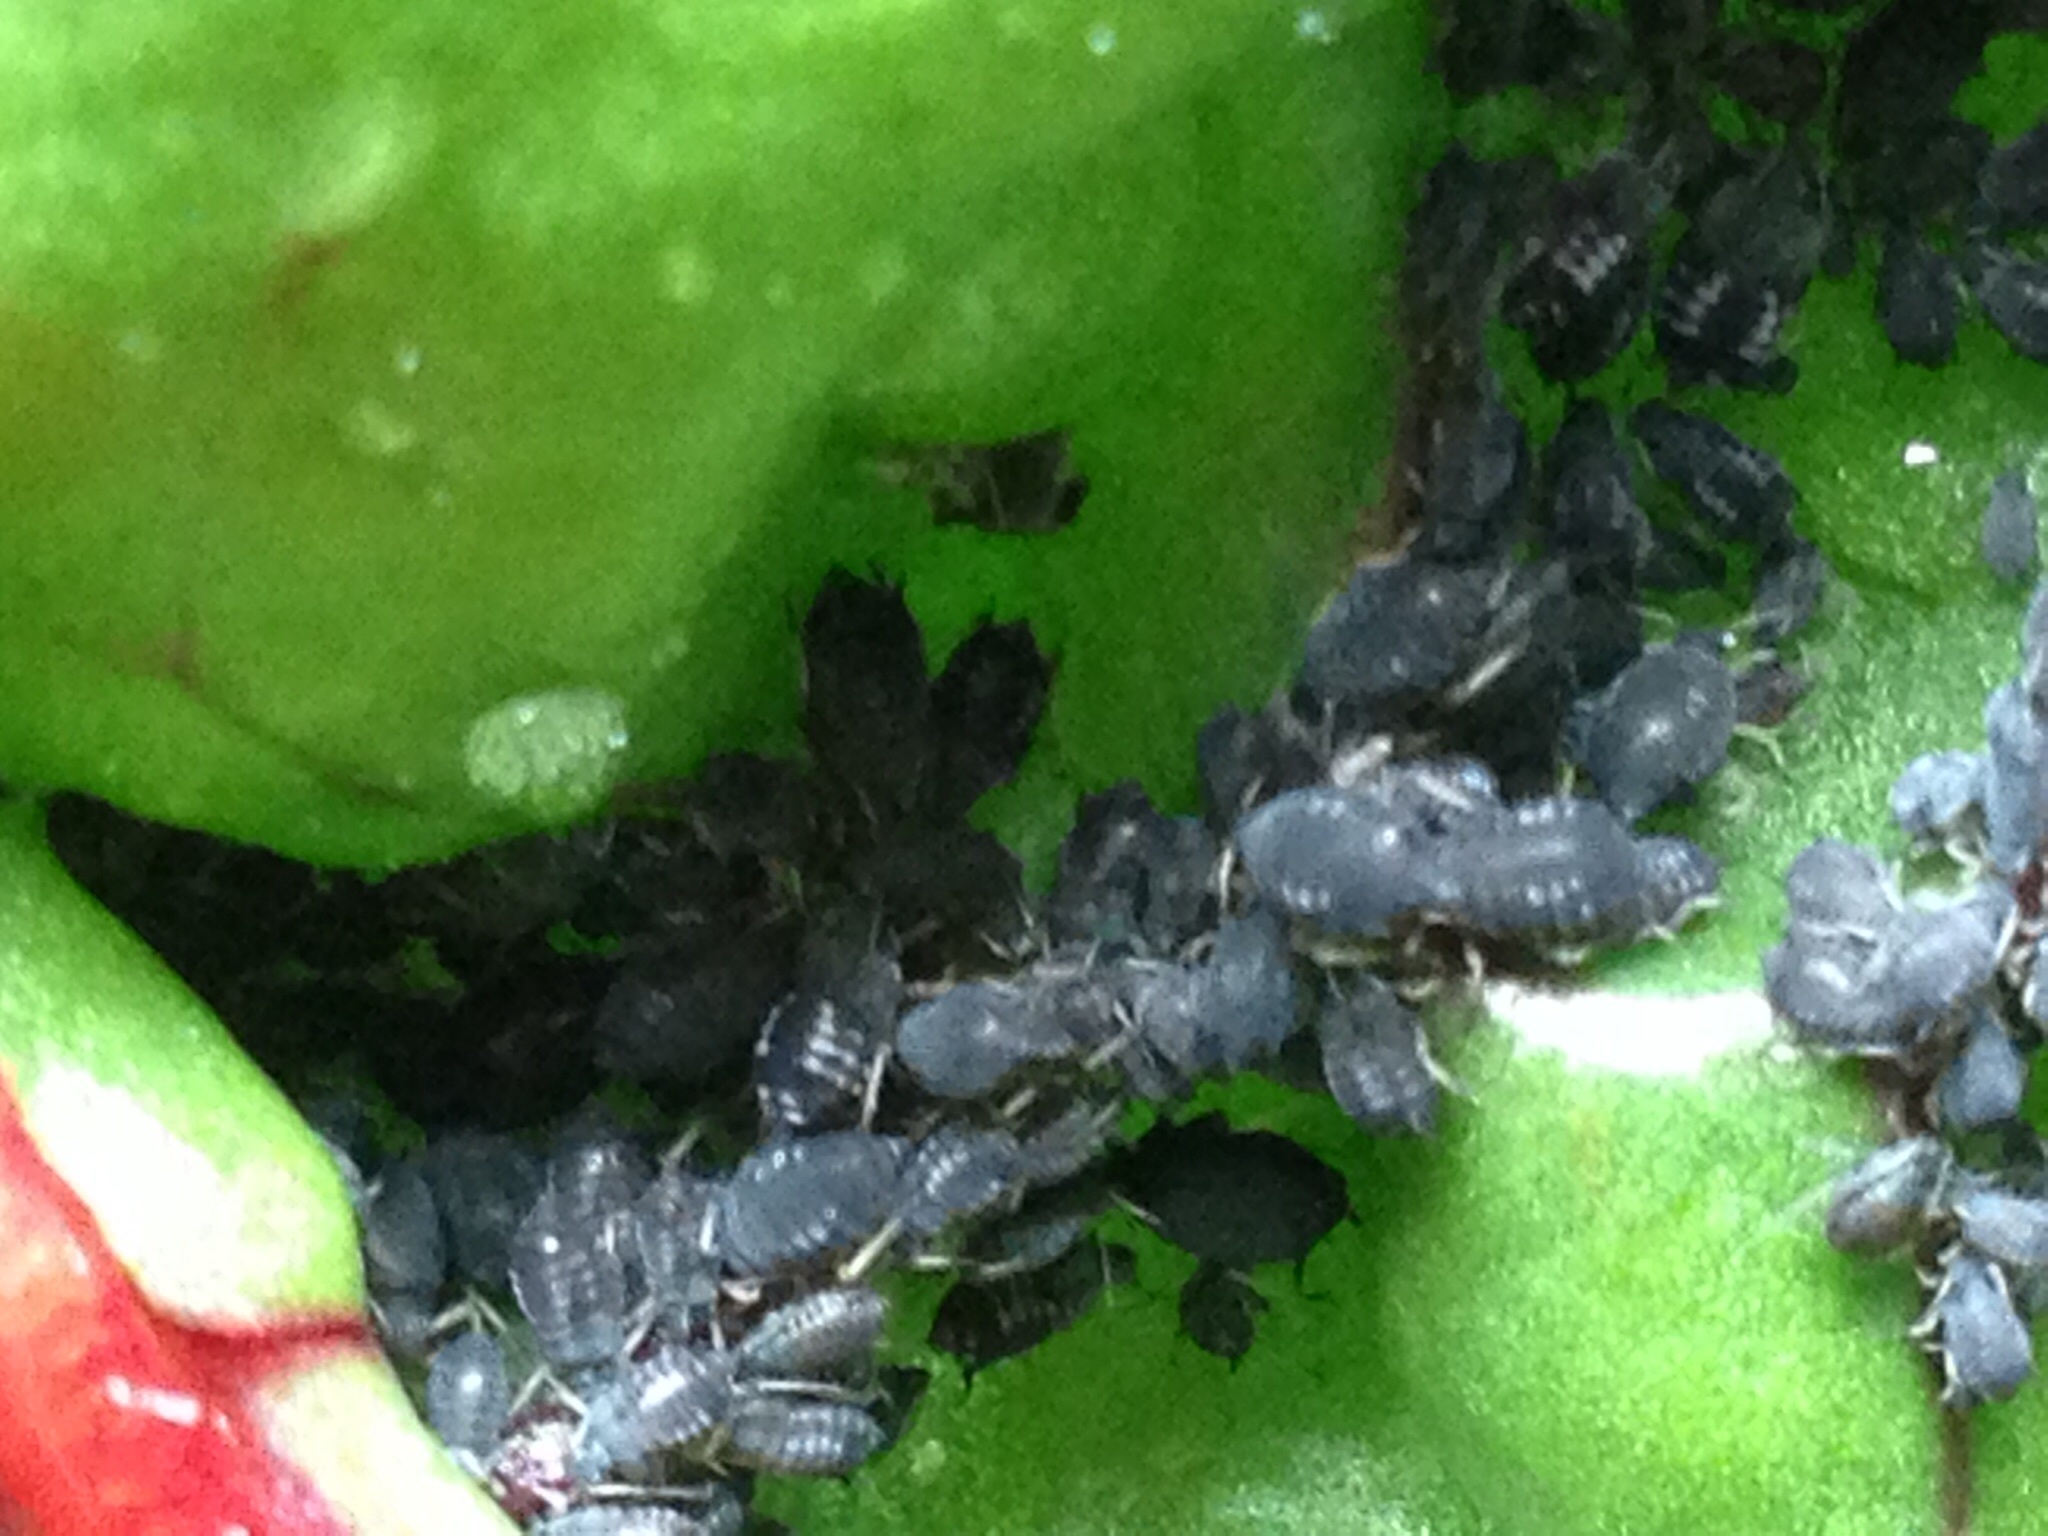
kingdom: Animalia
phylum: Arthropoda
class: Insecta
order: Hemiptera
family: Aphididae
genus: Aphis
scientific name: Aphis fabae
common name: Bean aphid
